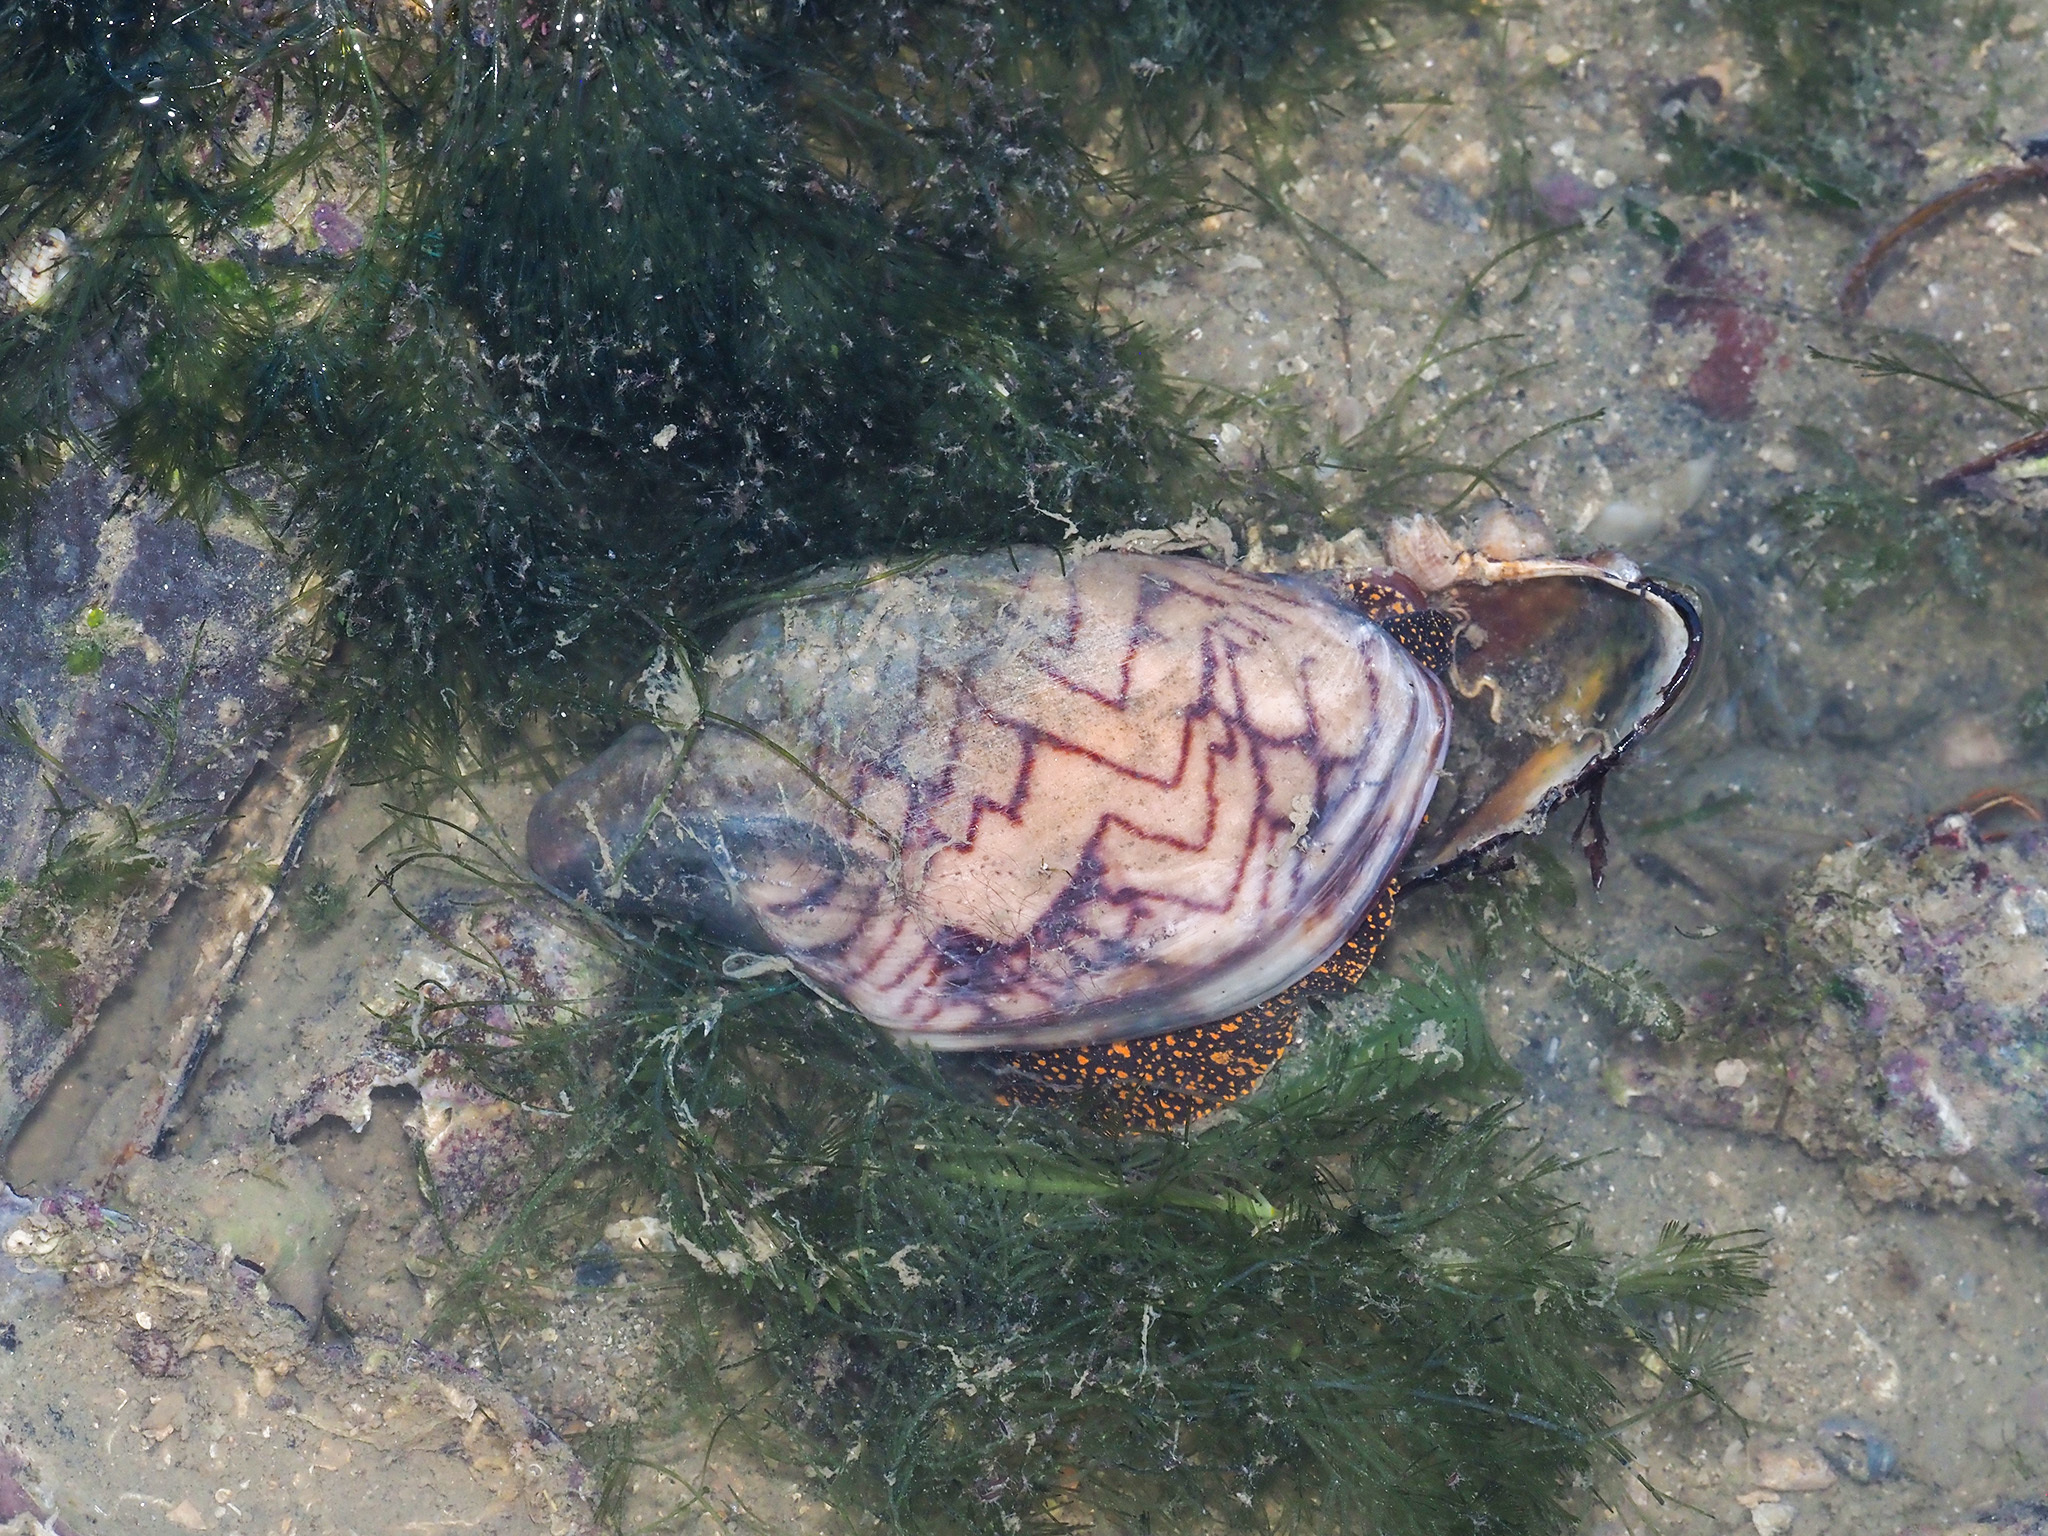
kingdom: Animalia
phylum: Mollusca
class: Gastropoda
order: Neogastropoda
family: Volutidae
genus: Cymbiola
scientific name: Cymbiola nobilis
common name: Noble volute
